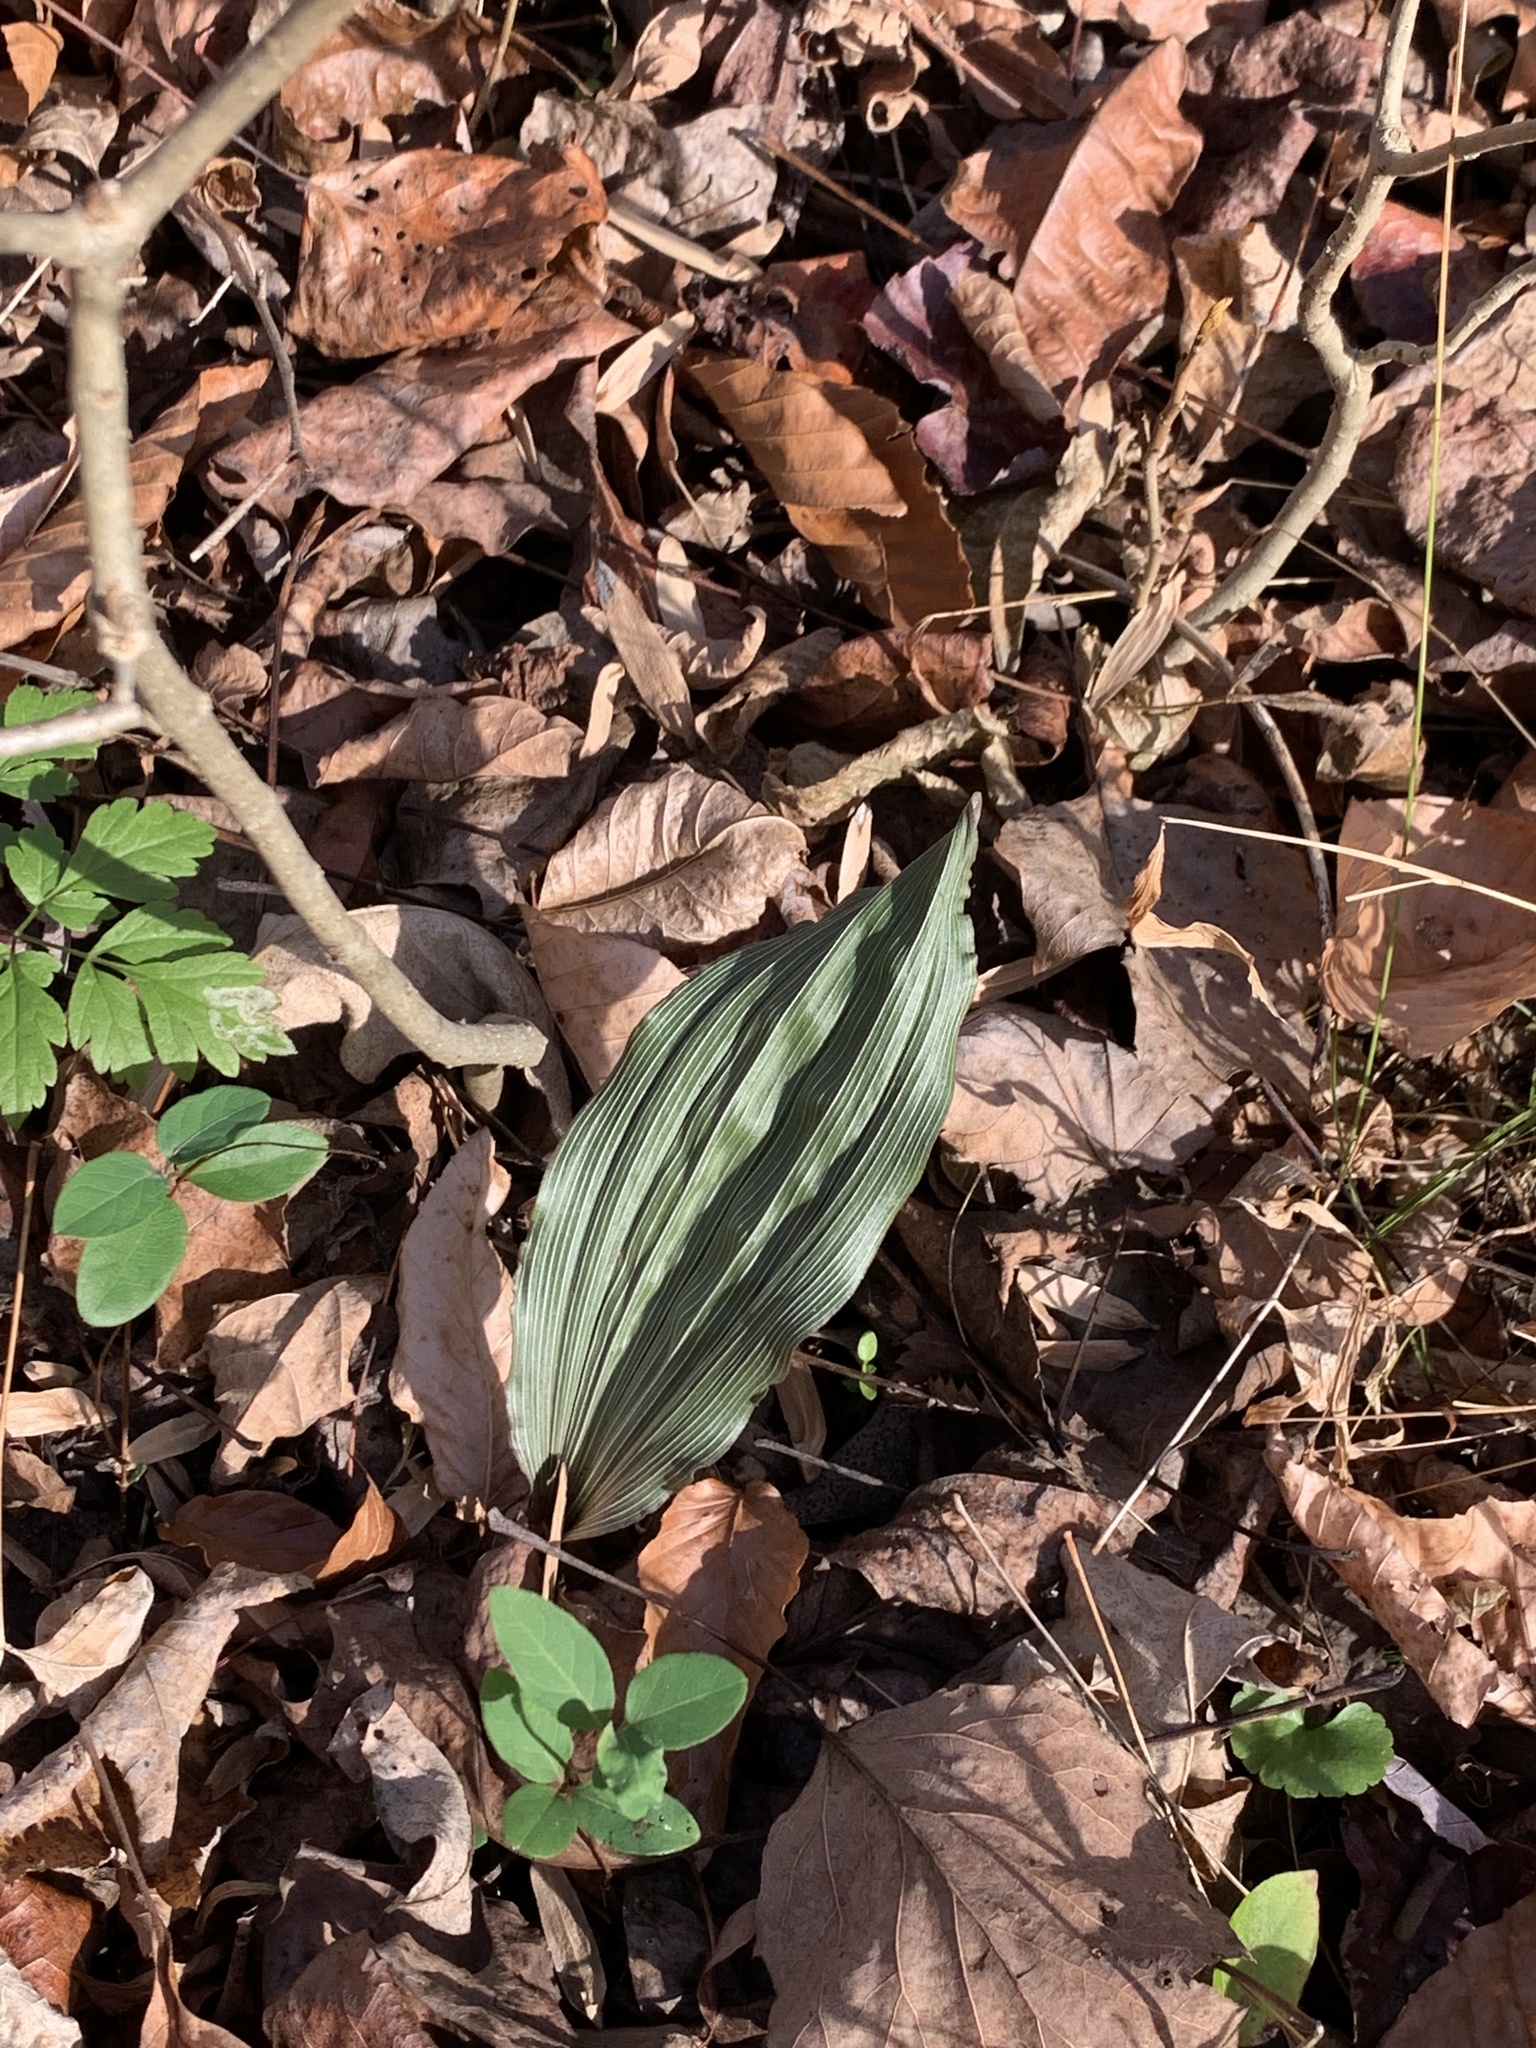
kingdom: Plantae
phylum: Tracheophyta
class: Liliopsida
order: Asparagales
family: Orchidaceae
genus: Aplectrum
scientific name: Aplectrum hyemale
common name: Adam-and-eve
